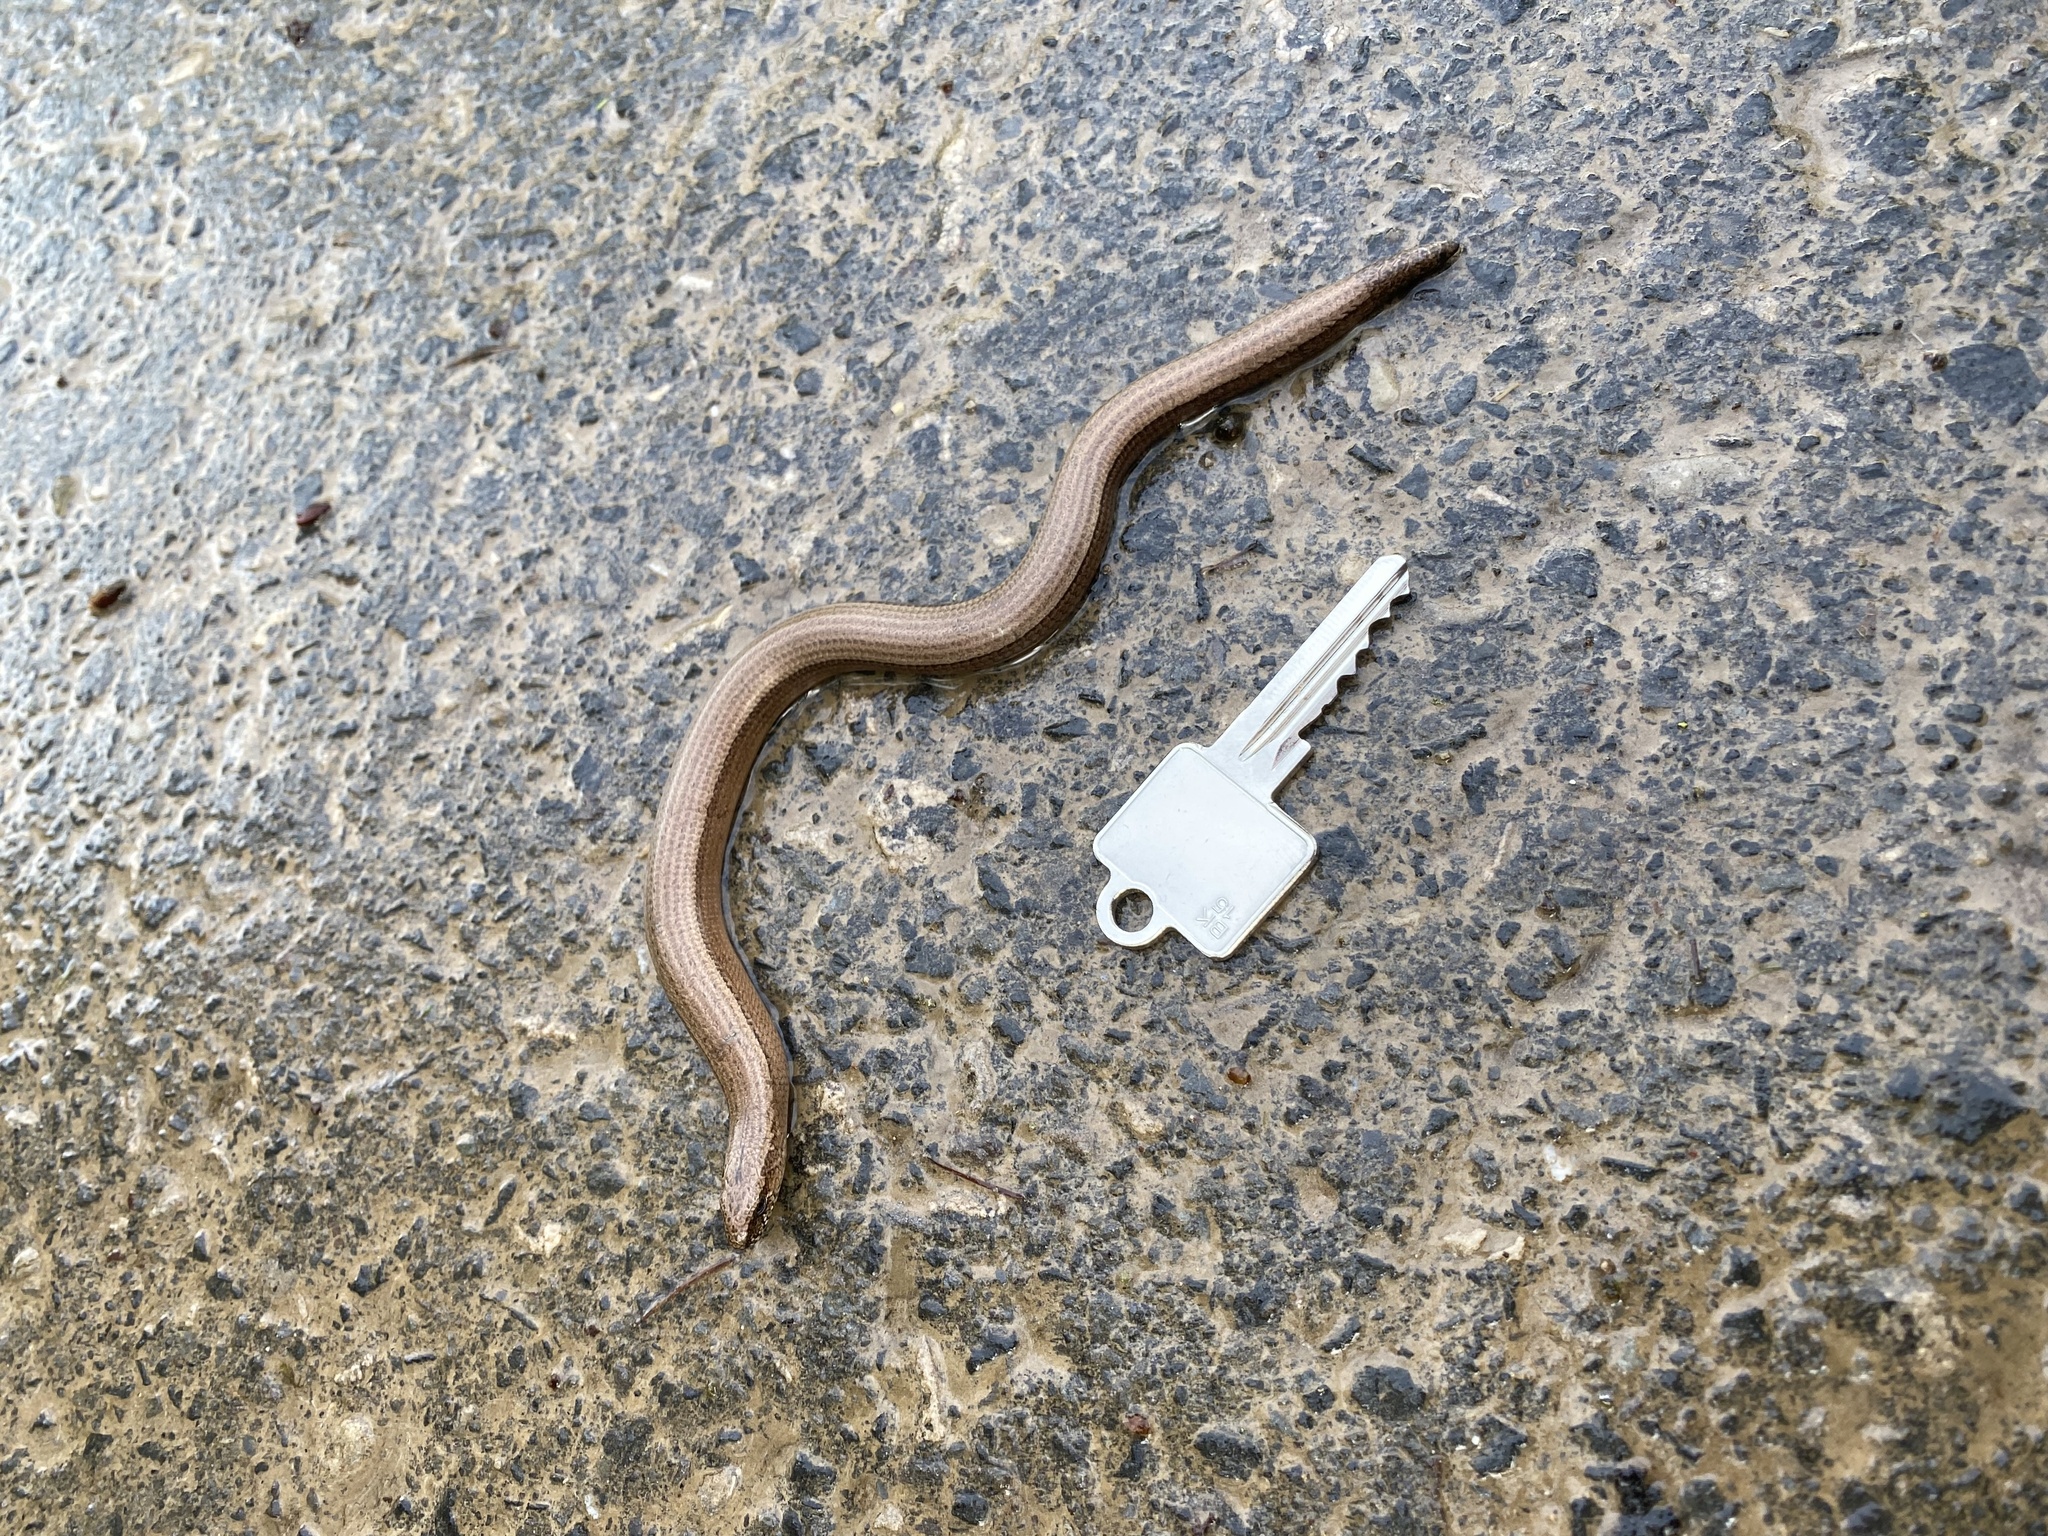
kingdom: Animalia
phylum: Chordata
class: Squamata
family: Anguidae
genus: Anguis
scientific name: Anguis fragilis
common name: Slow worm
